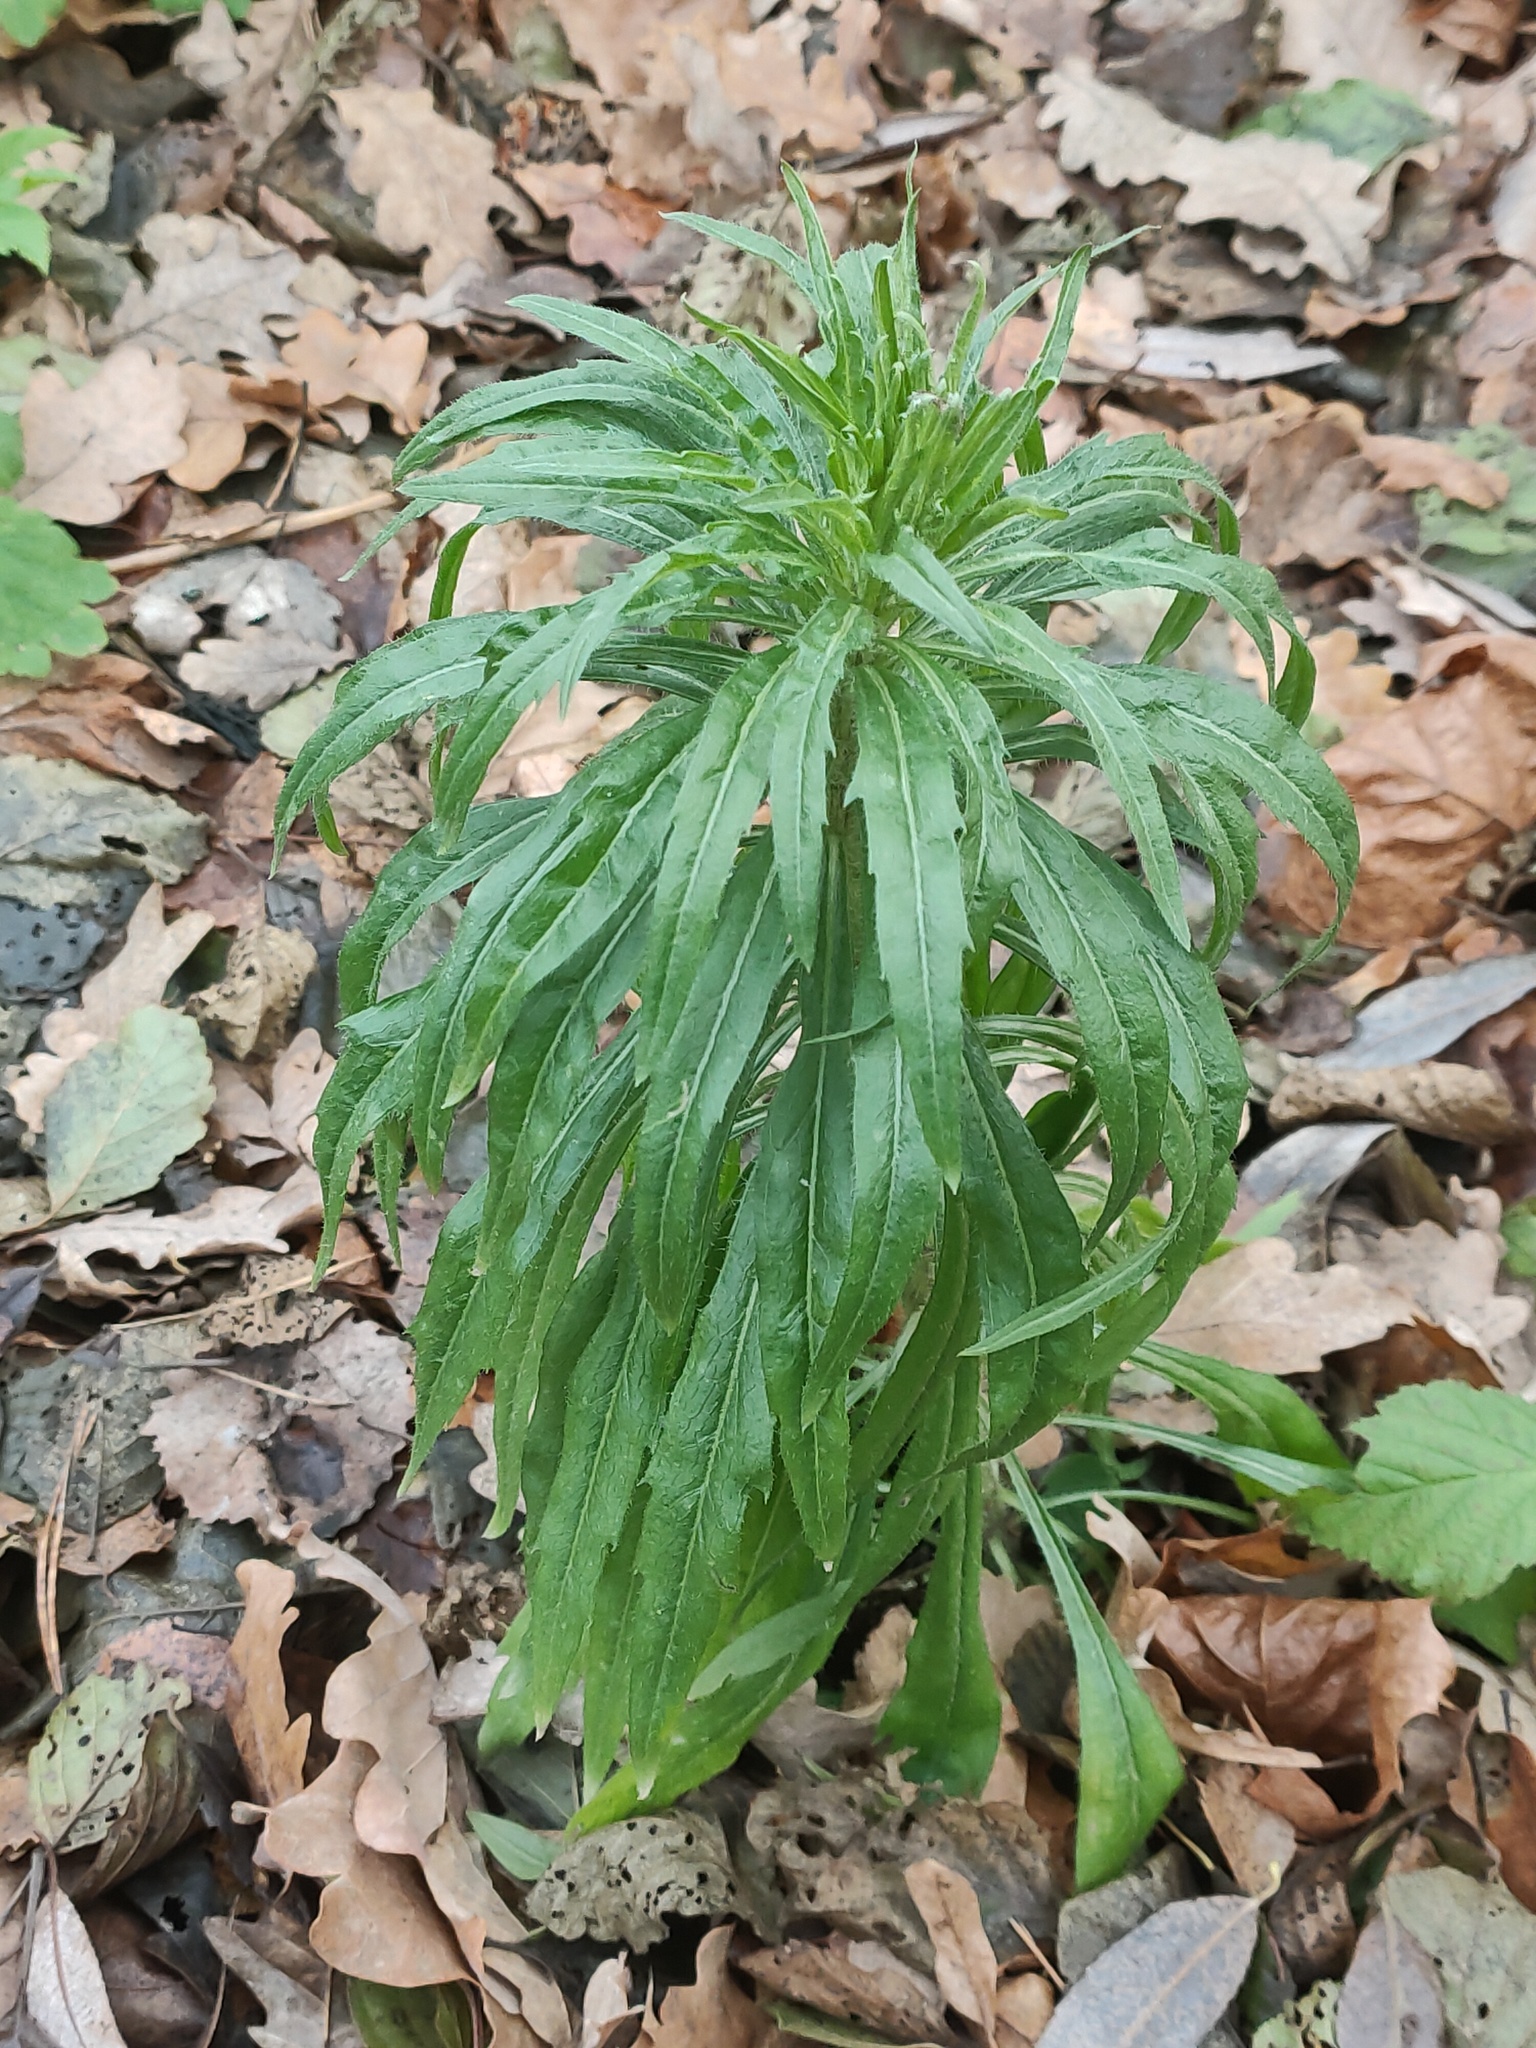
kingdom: Plantae
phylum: Tracheophyta
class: Magnoliopsida
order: Asterales
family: Asteraceae
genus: Erigeron
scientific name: Erigeron canadensis
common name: Canadian fleabane
